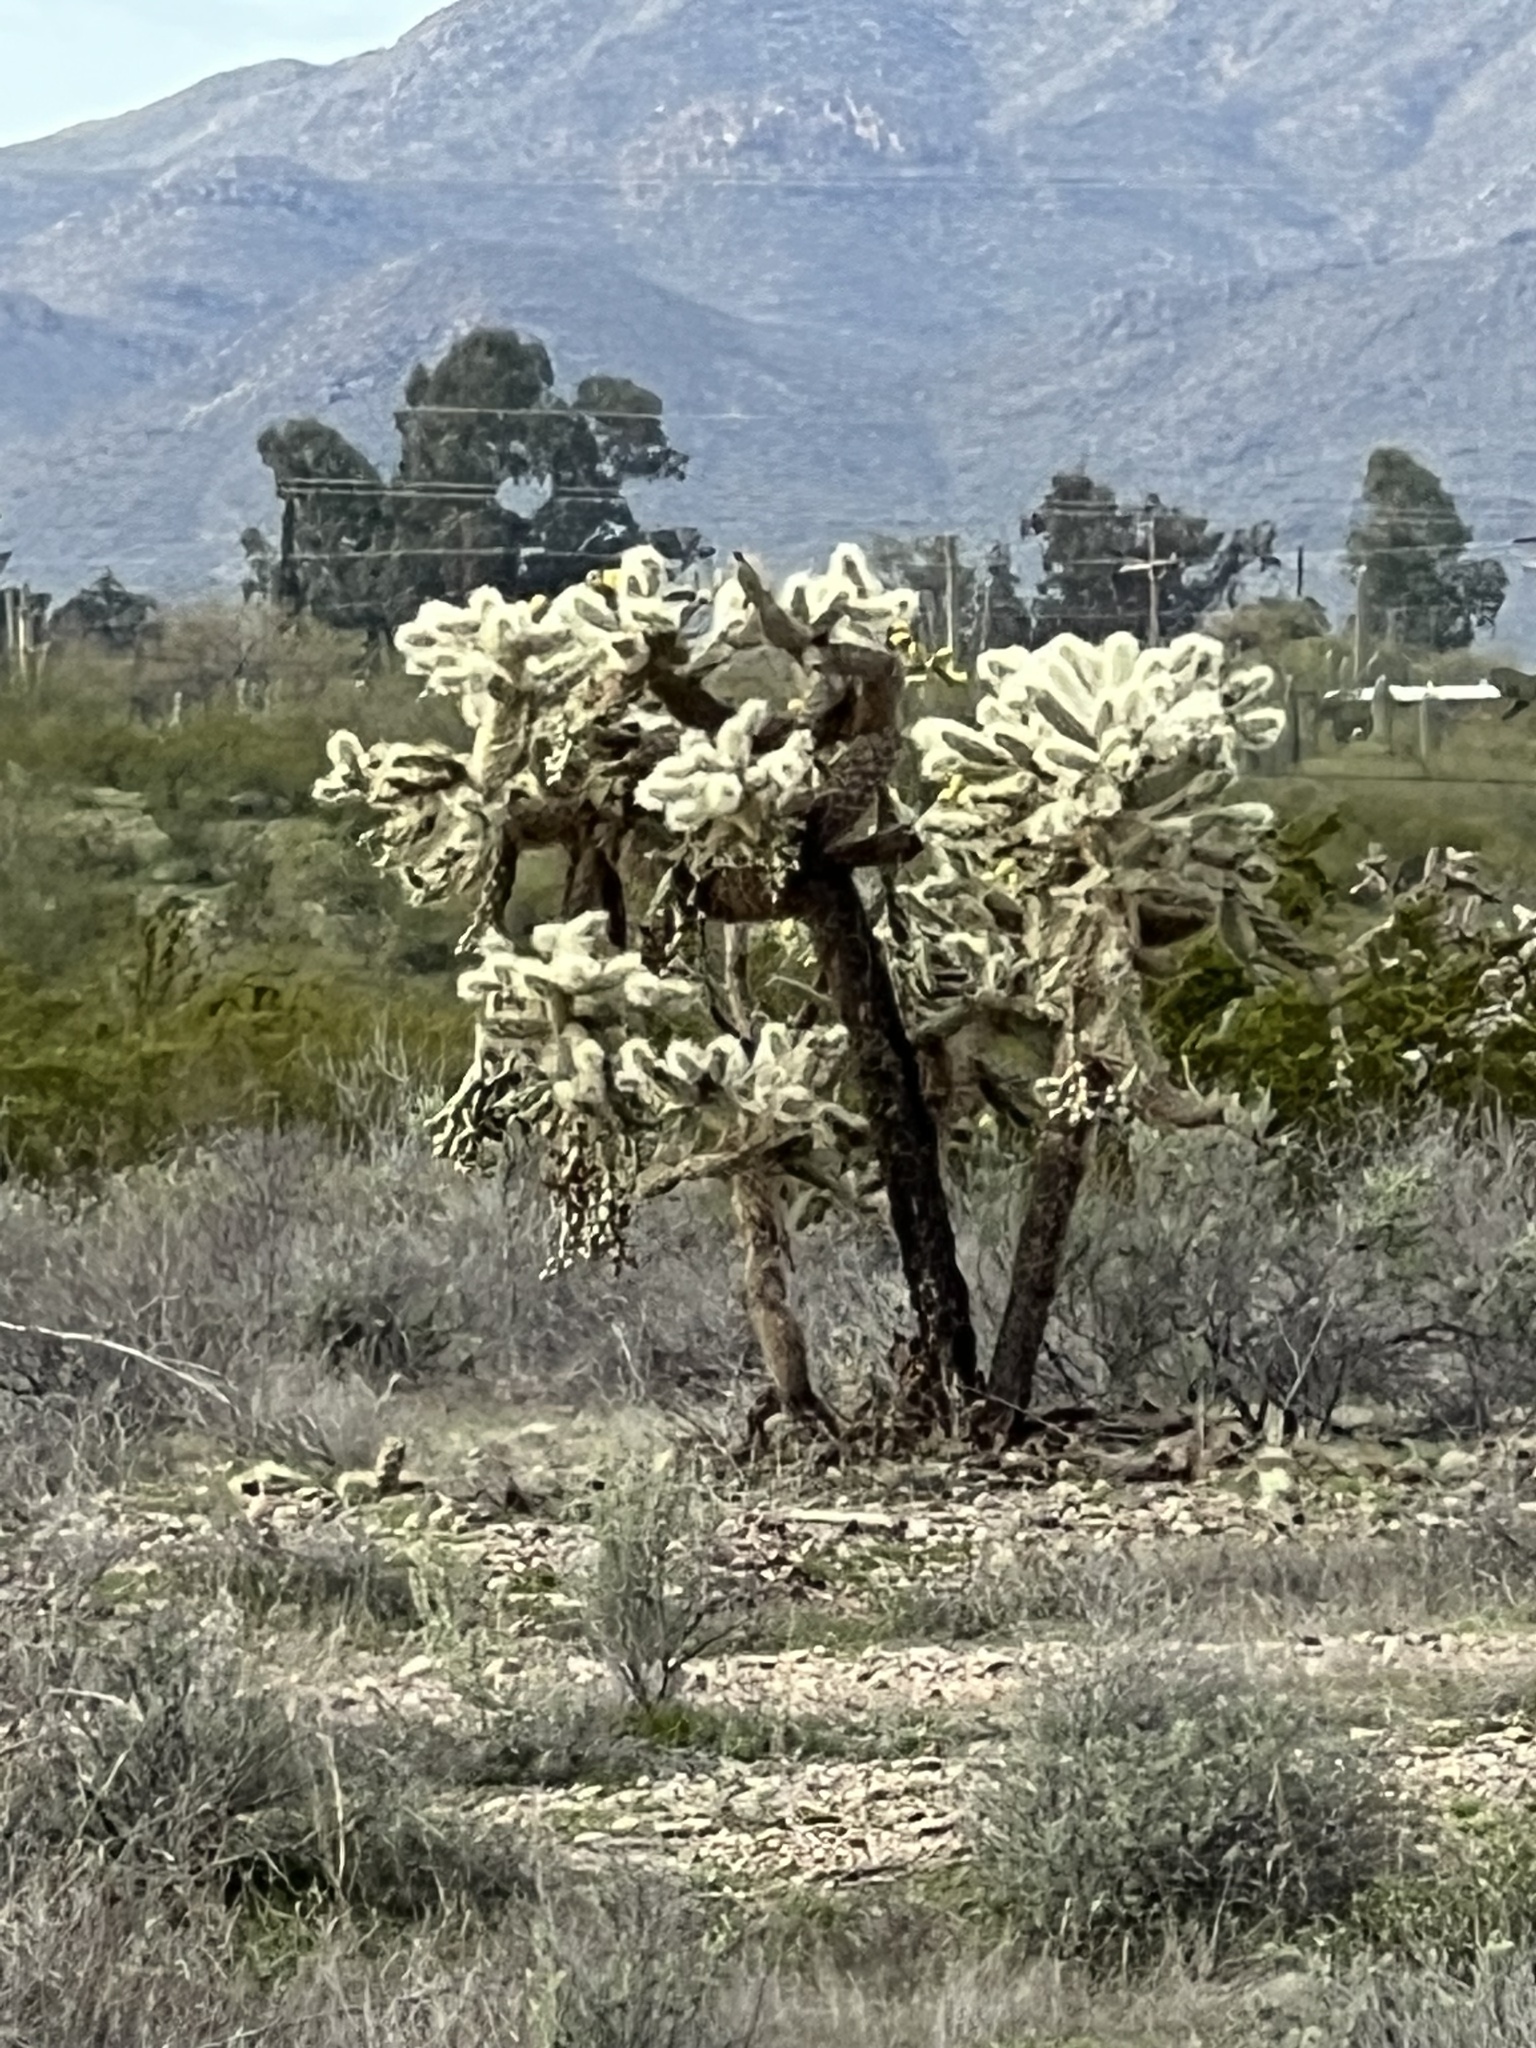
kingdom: Plantae
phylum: Tracheophyta
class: Magnoliopsida
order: Caryophyllales
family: Cactaceae
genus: Cylindropuntia
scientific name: Cylindropuntia fulgida
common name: Jumping cholla
